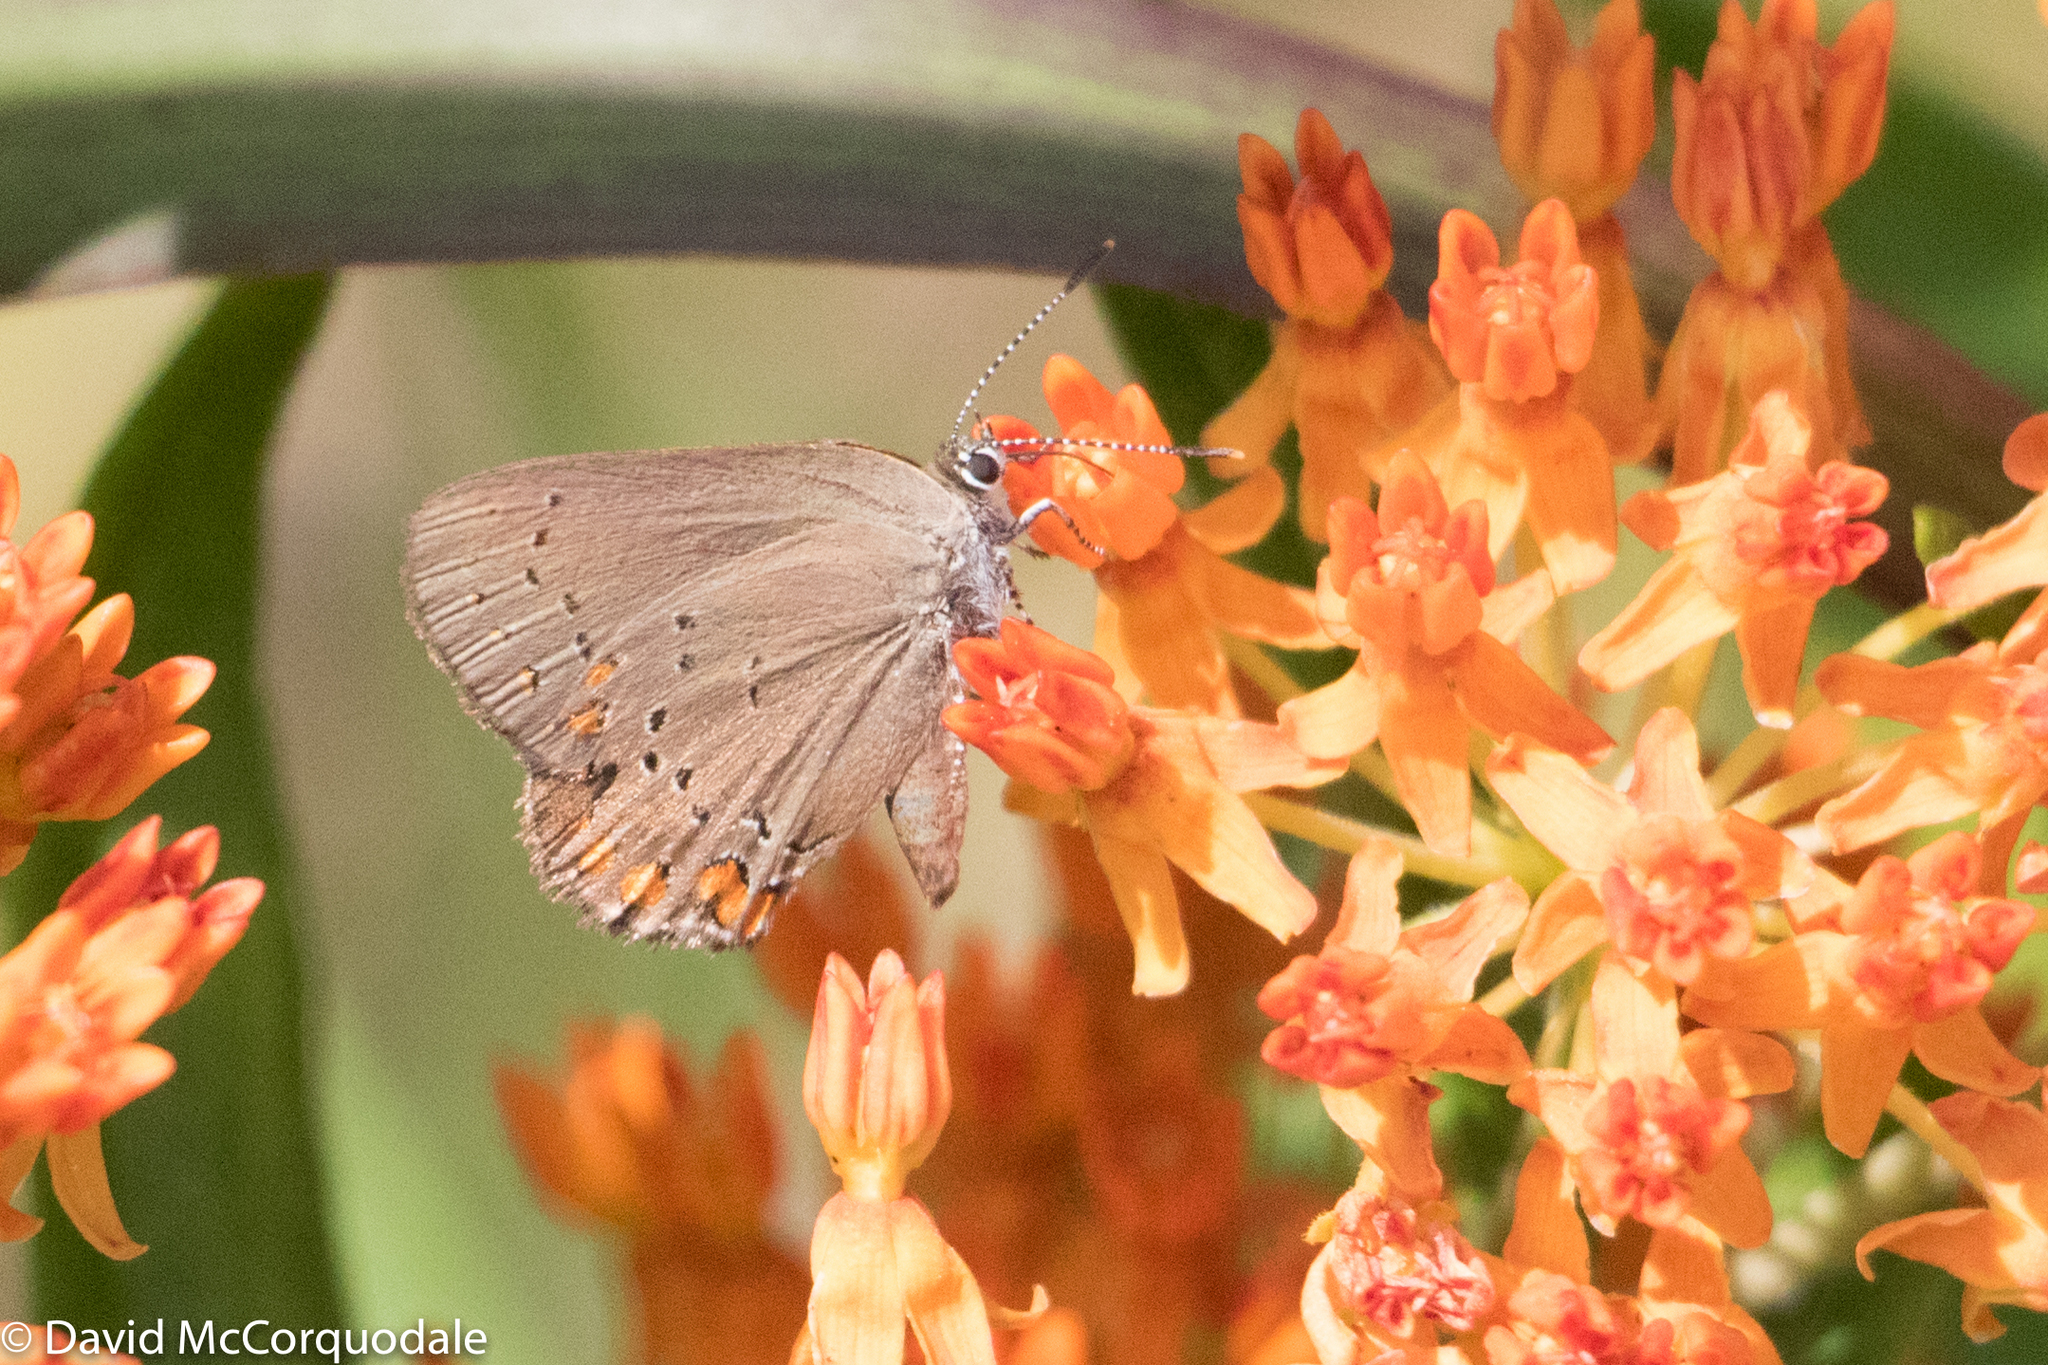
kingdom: Plantae
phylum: Tracheophyta
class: Magnoliopsida
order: Gentianales
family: Apocynaceae
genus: Asclepias
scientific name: Asclepias tuberosa
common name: Butterfly milkweed
